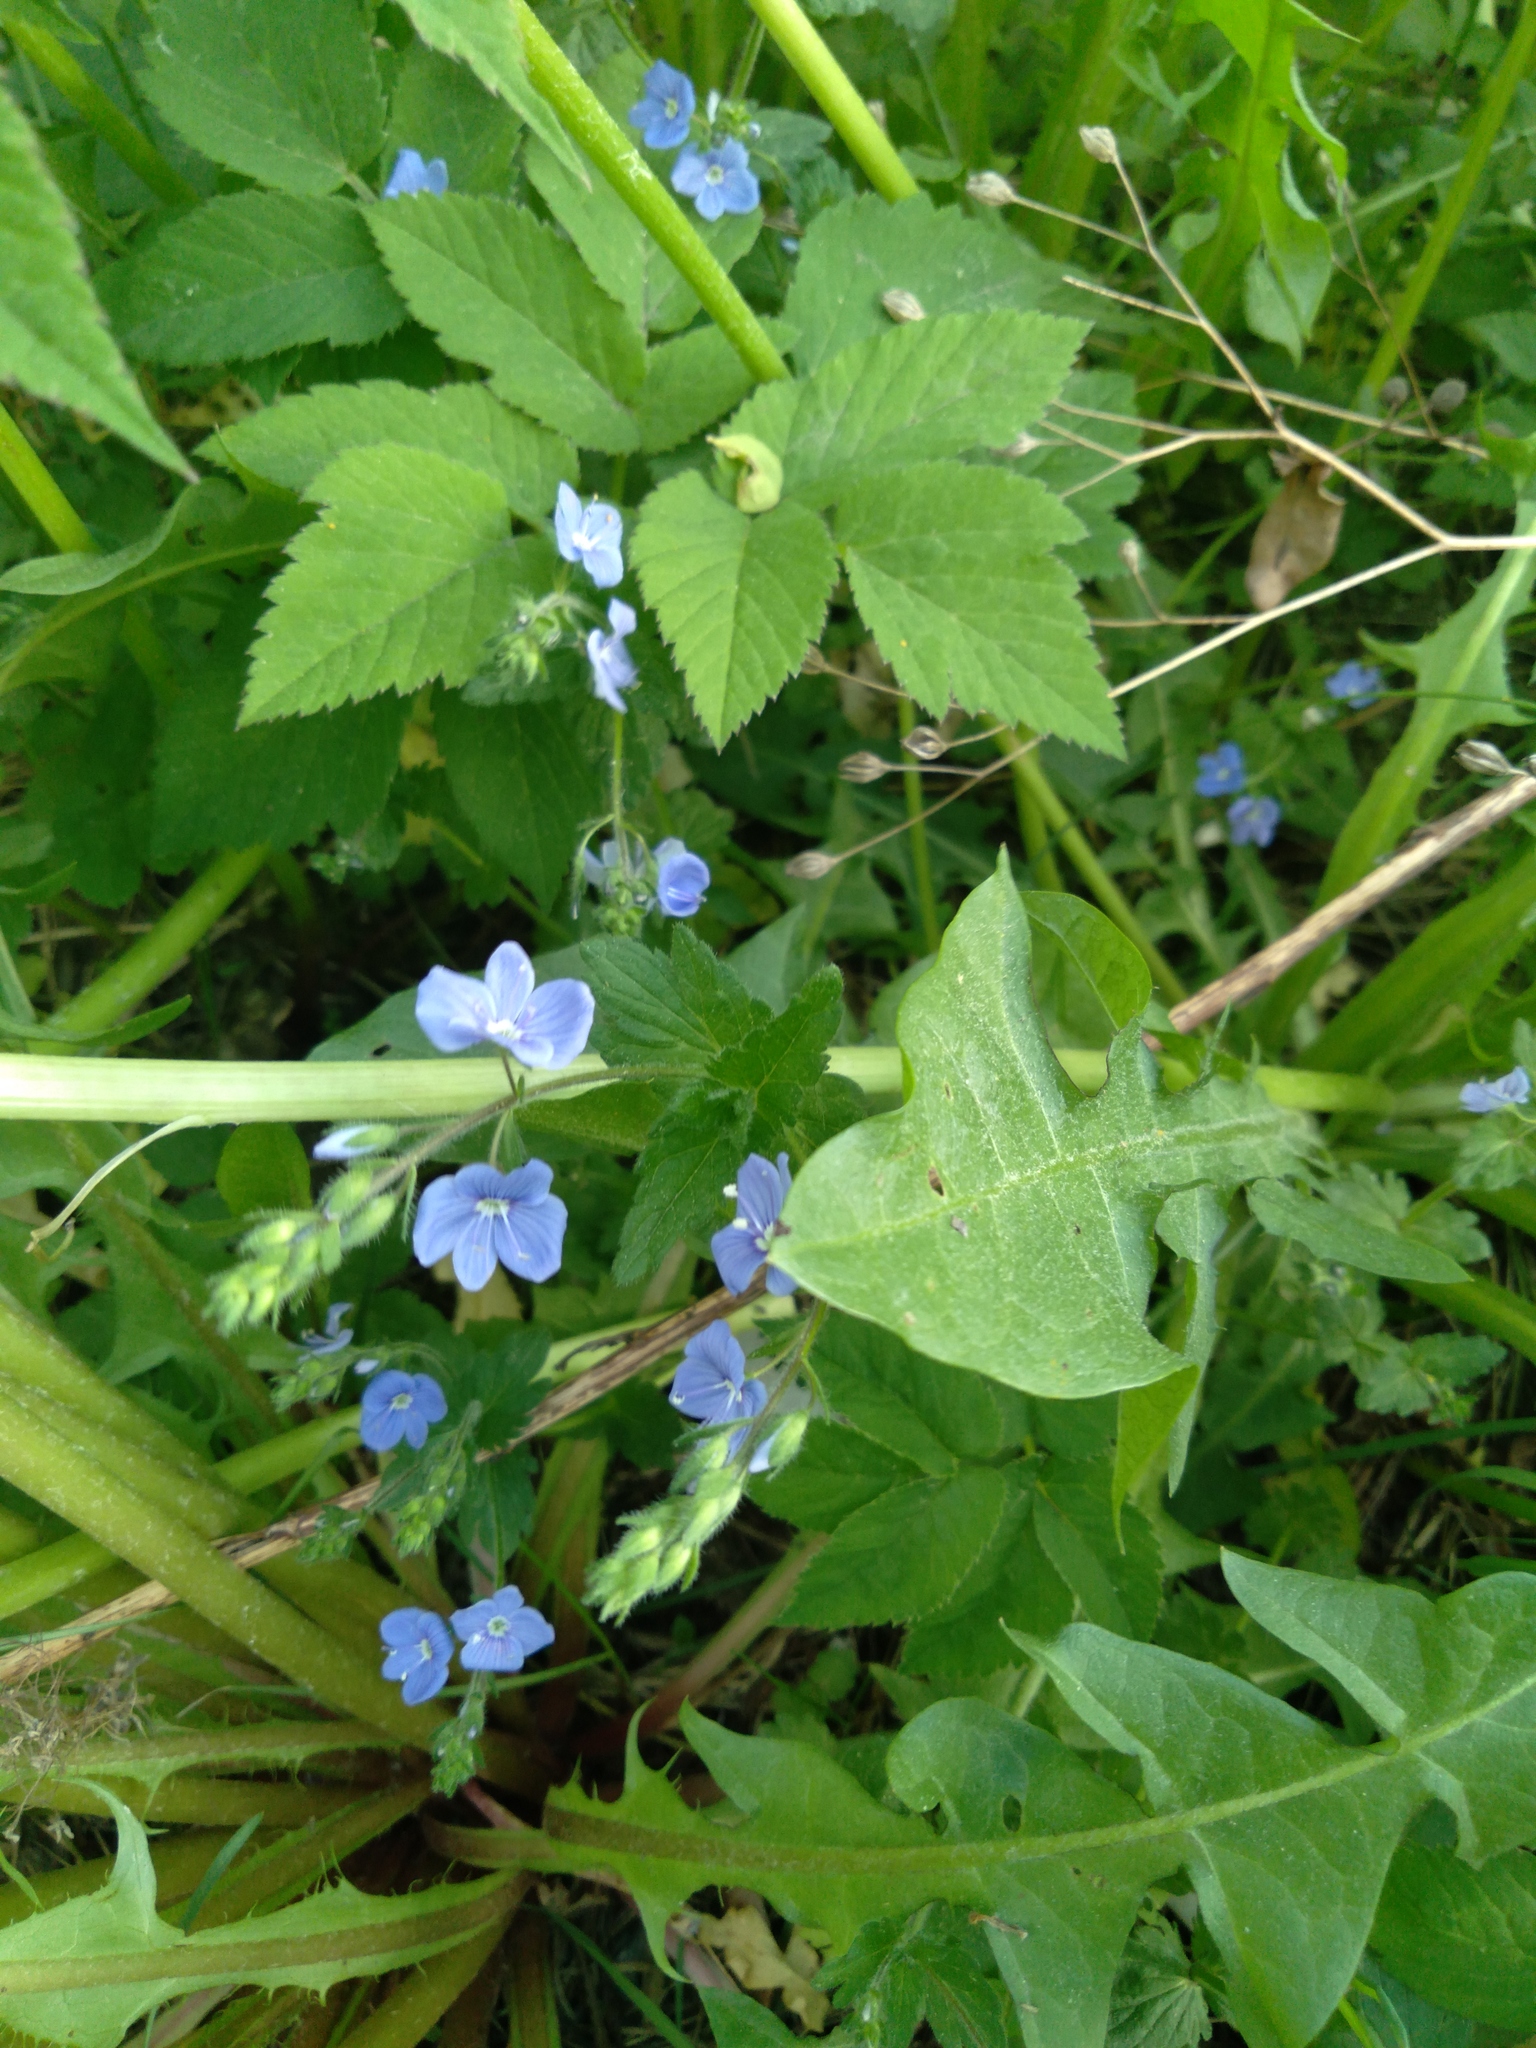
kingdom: Plantae
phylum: Tracheophyta
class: Magnoliopsida
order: Lamiales
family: Plantaginaceae
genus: Veronica
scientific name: Veronica chamaedrys
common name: Germander speedwell
